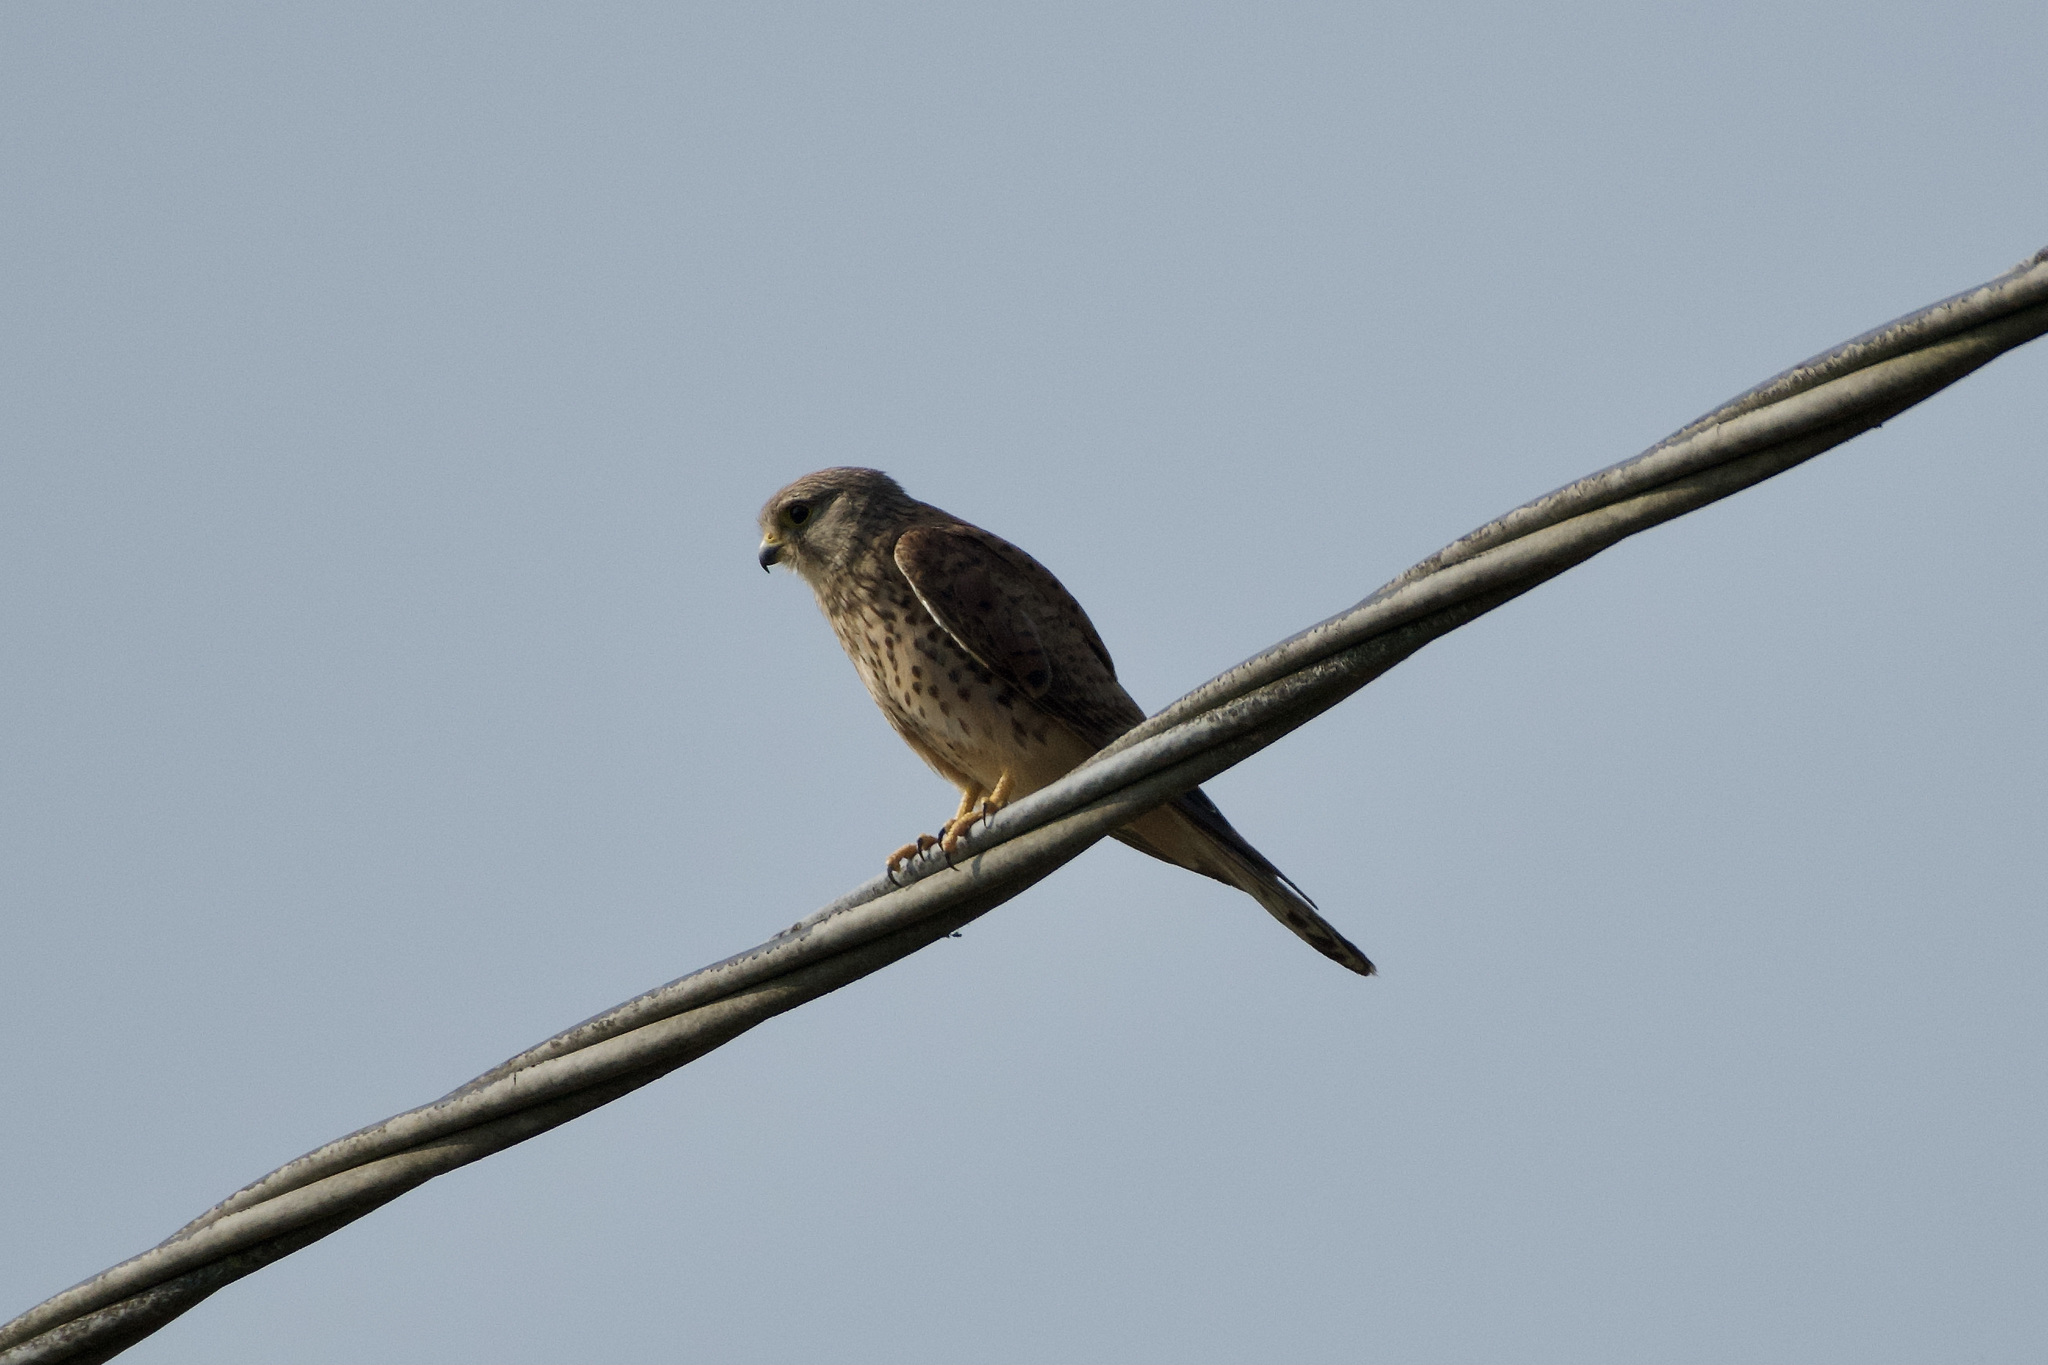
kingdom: Animalia
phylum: Chordata
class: Aves
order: Falconiformes
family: Falconidae
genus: Falco
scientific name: Falco tinnunculus
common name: Common kestrel
